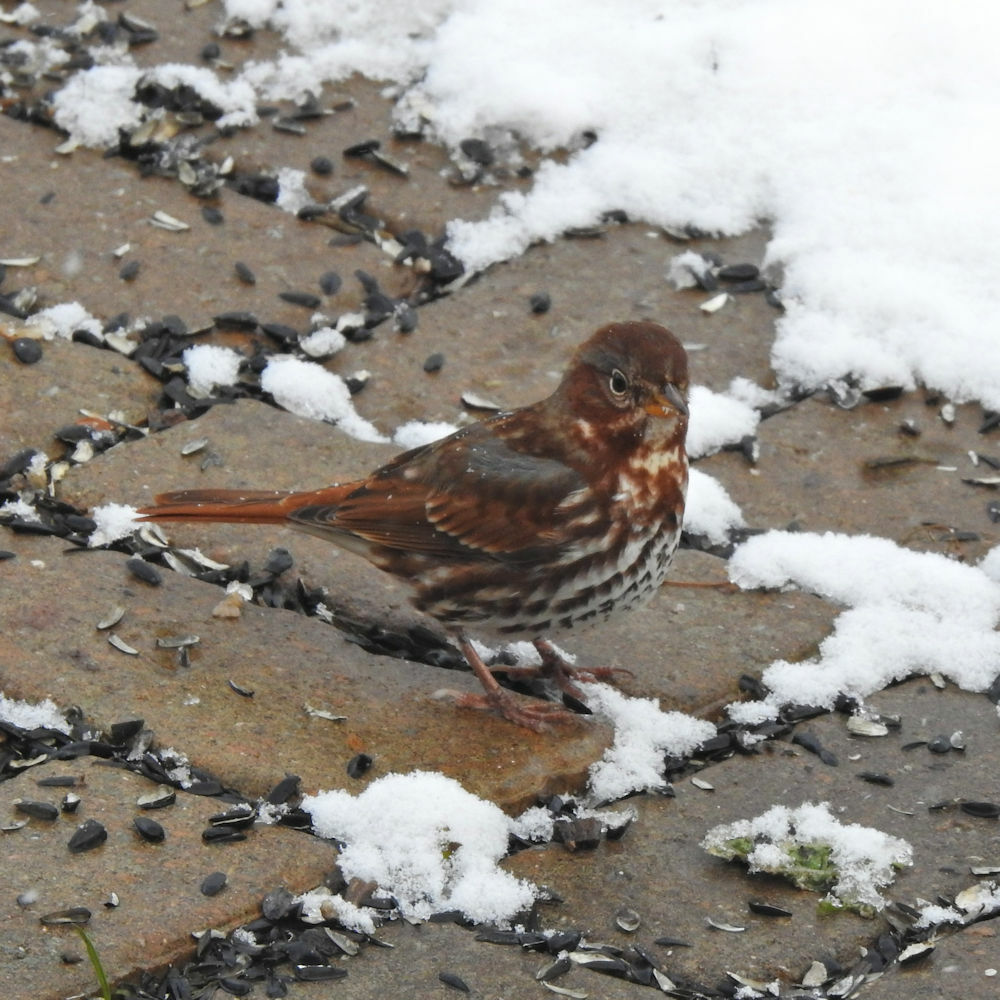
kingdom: Animalia
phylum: Chordata
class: Aves
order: Passeriformes
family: Passerellidae
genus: Passerella
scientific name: Passerella iliaca
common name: Fox sparrow
